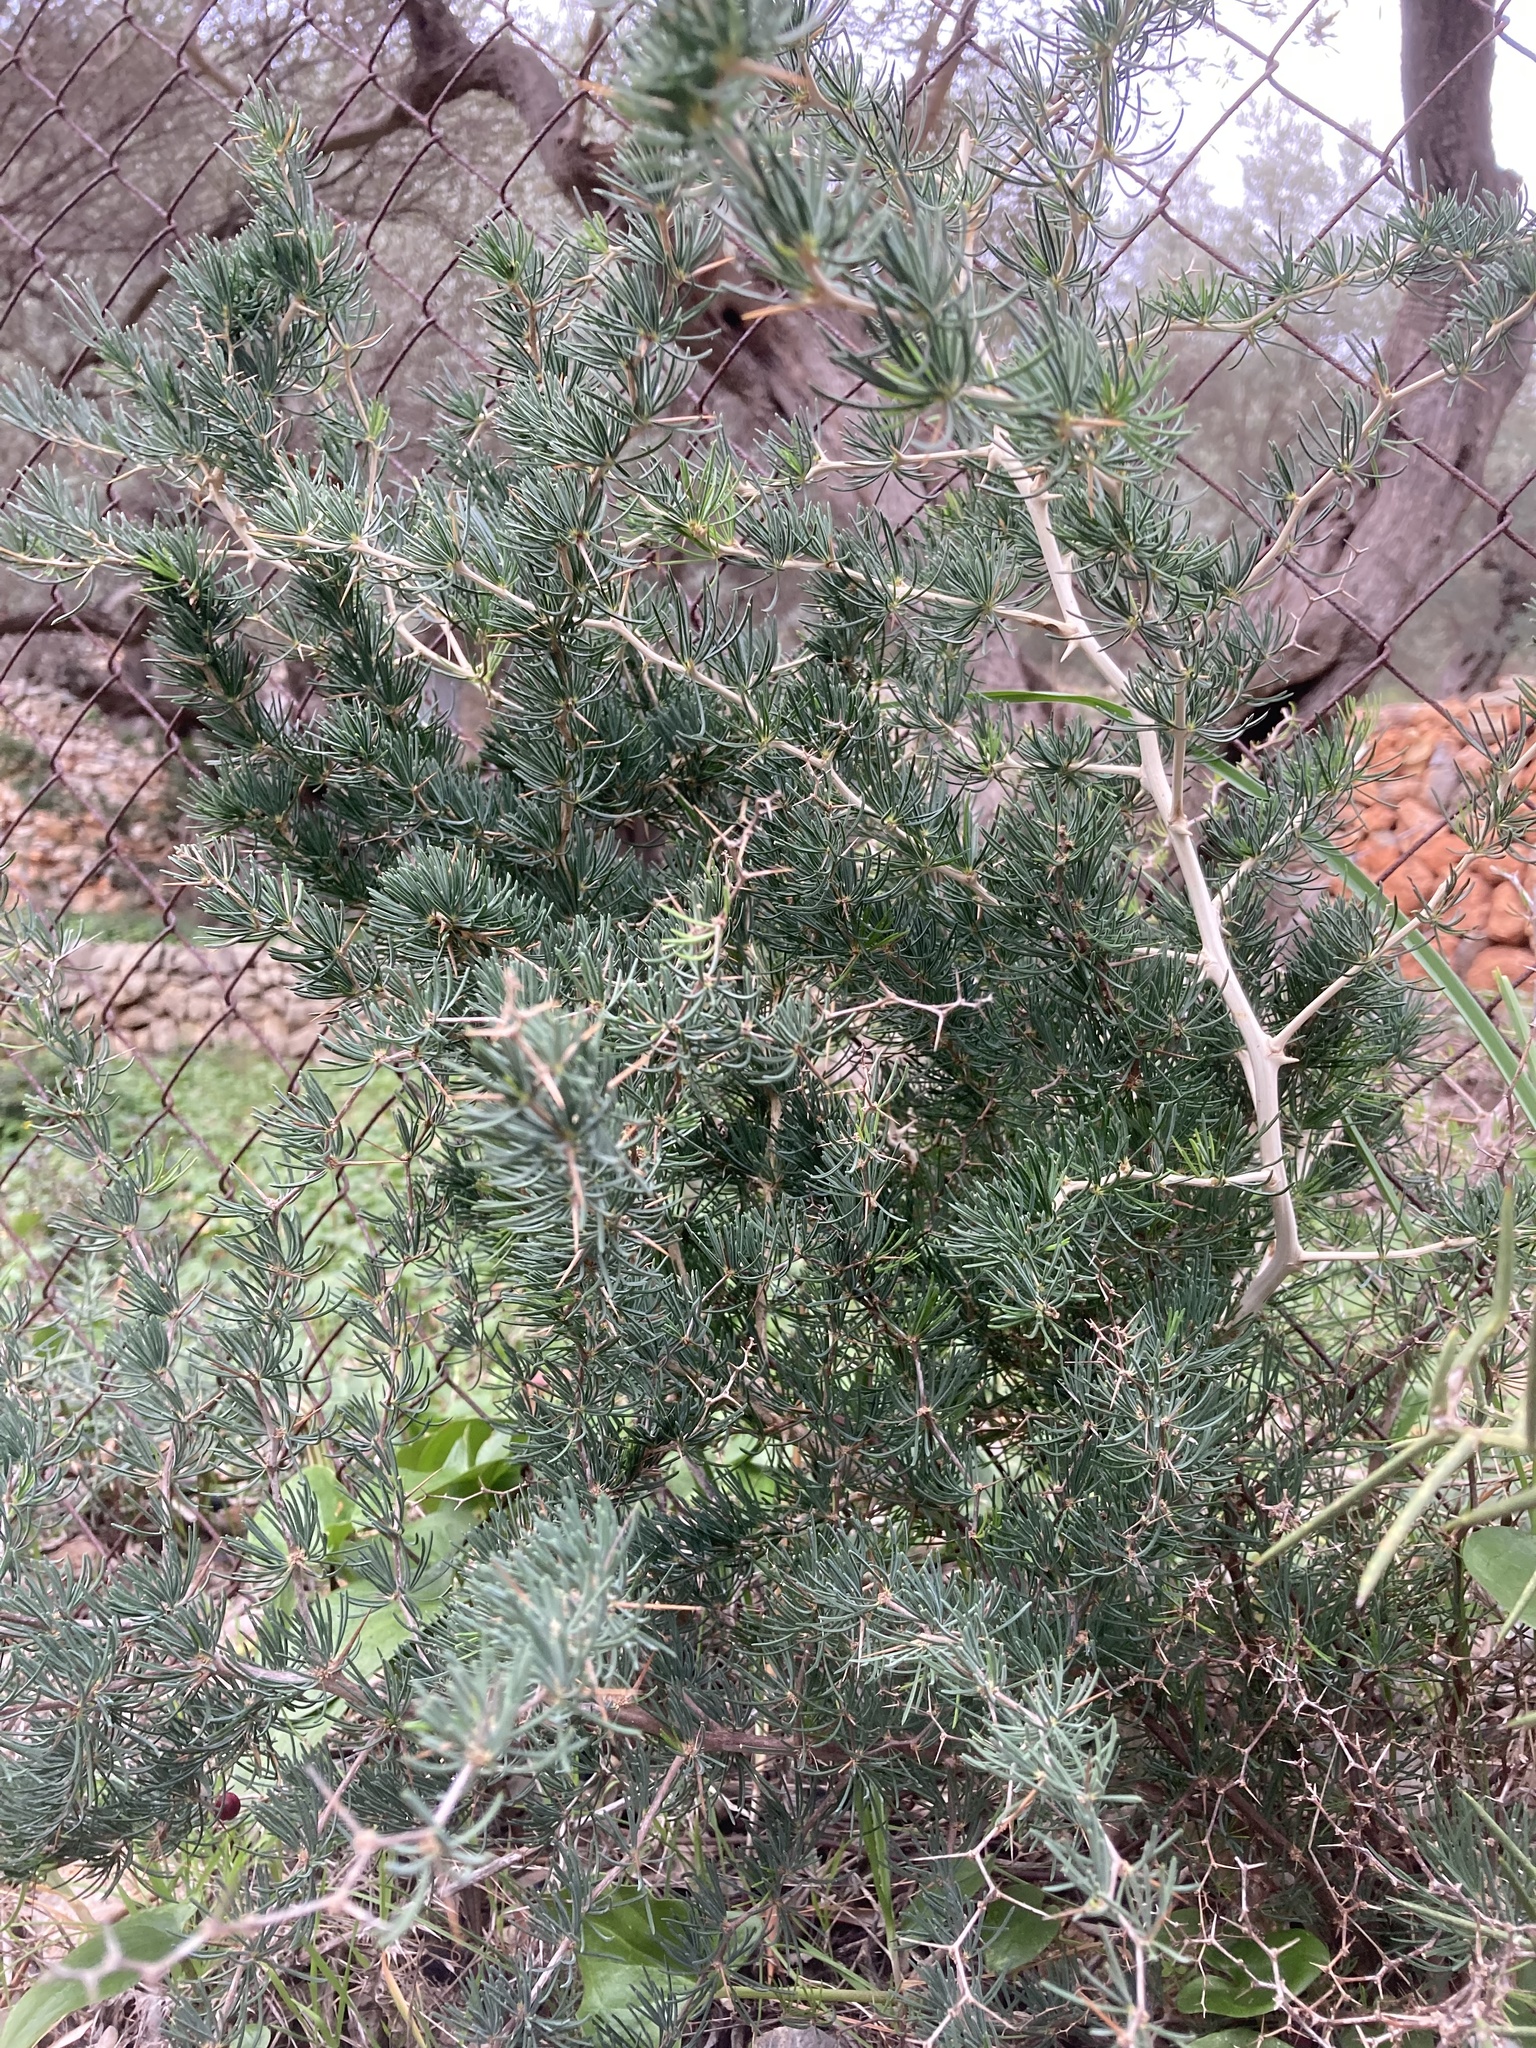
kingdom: Plantae
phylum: Tracheophyta
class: Liliopsida
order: Asparagales
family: Asparagaceae
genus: Asparagus
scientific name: Asparagus albus
